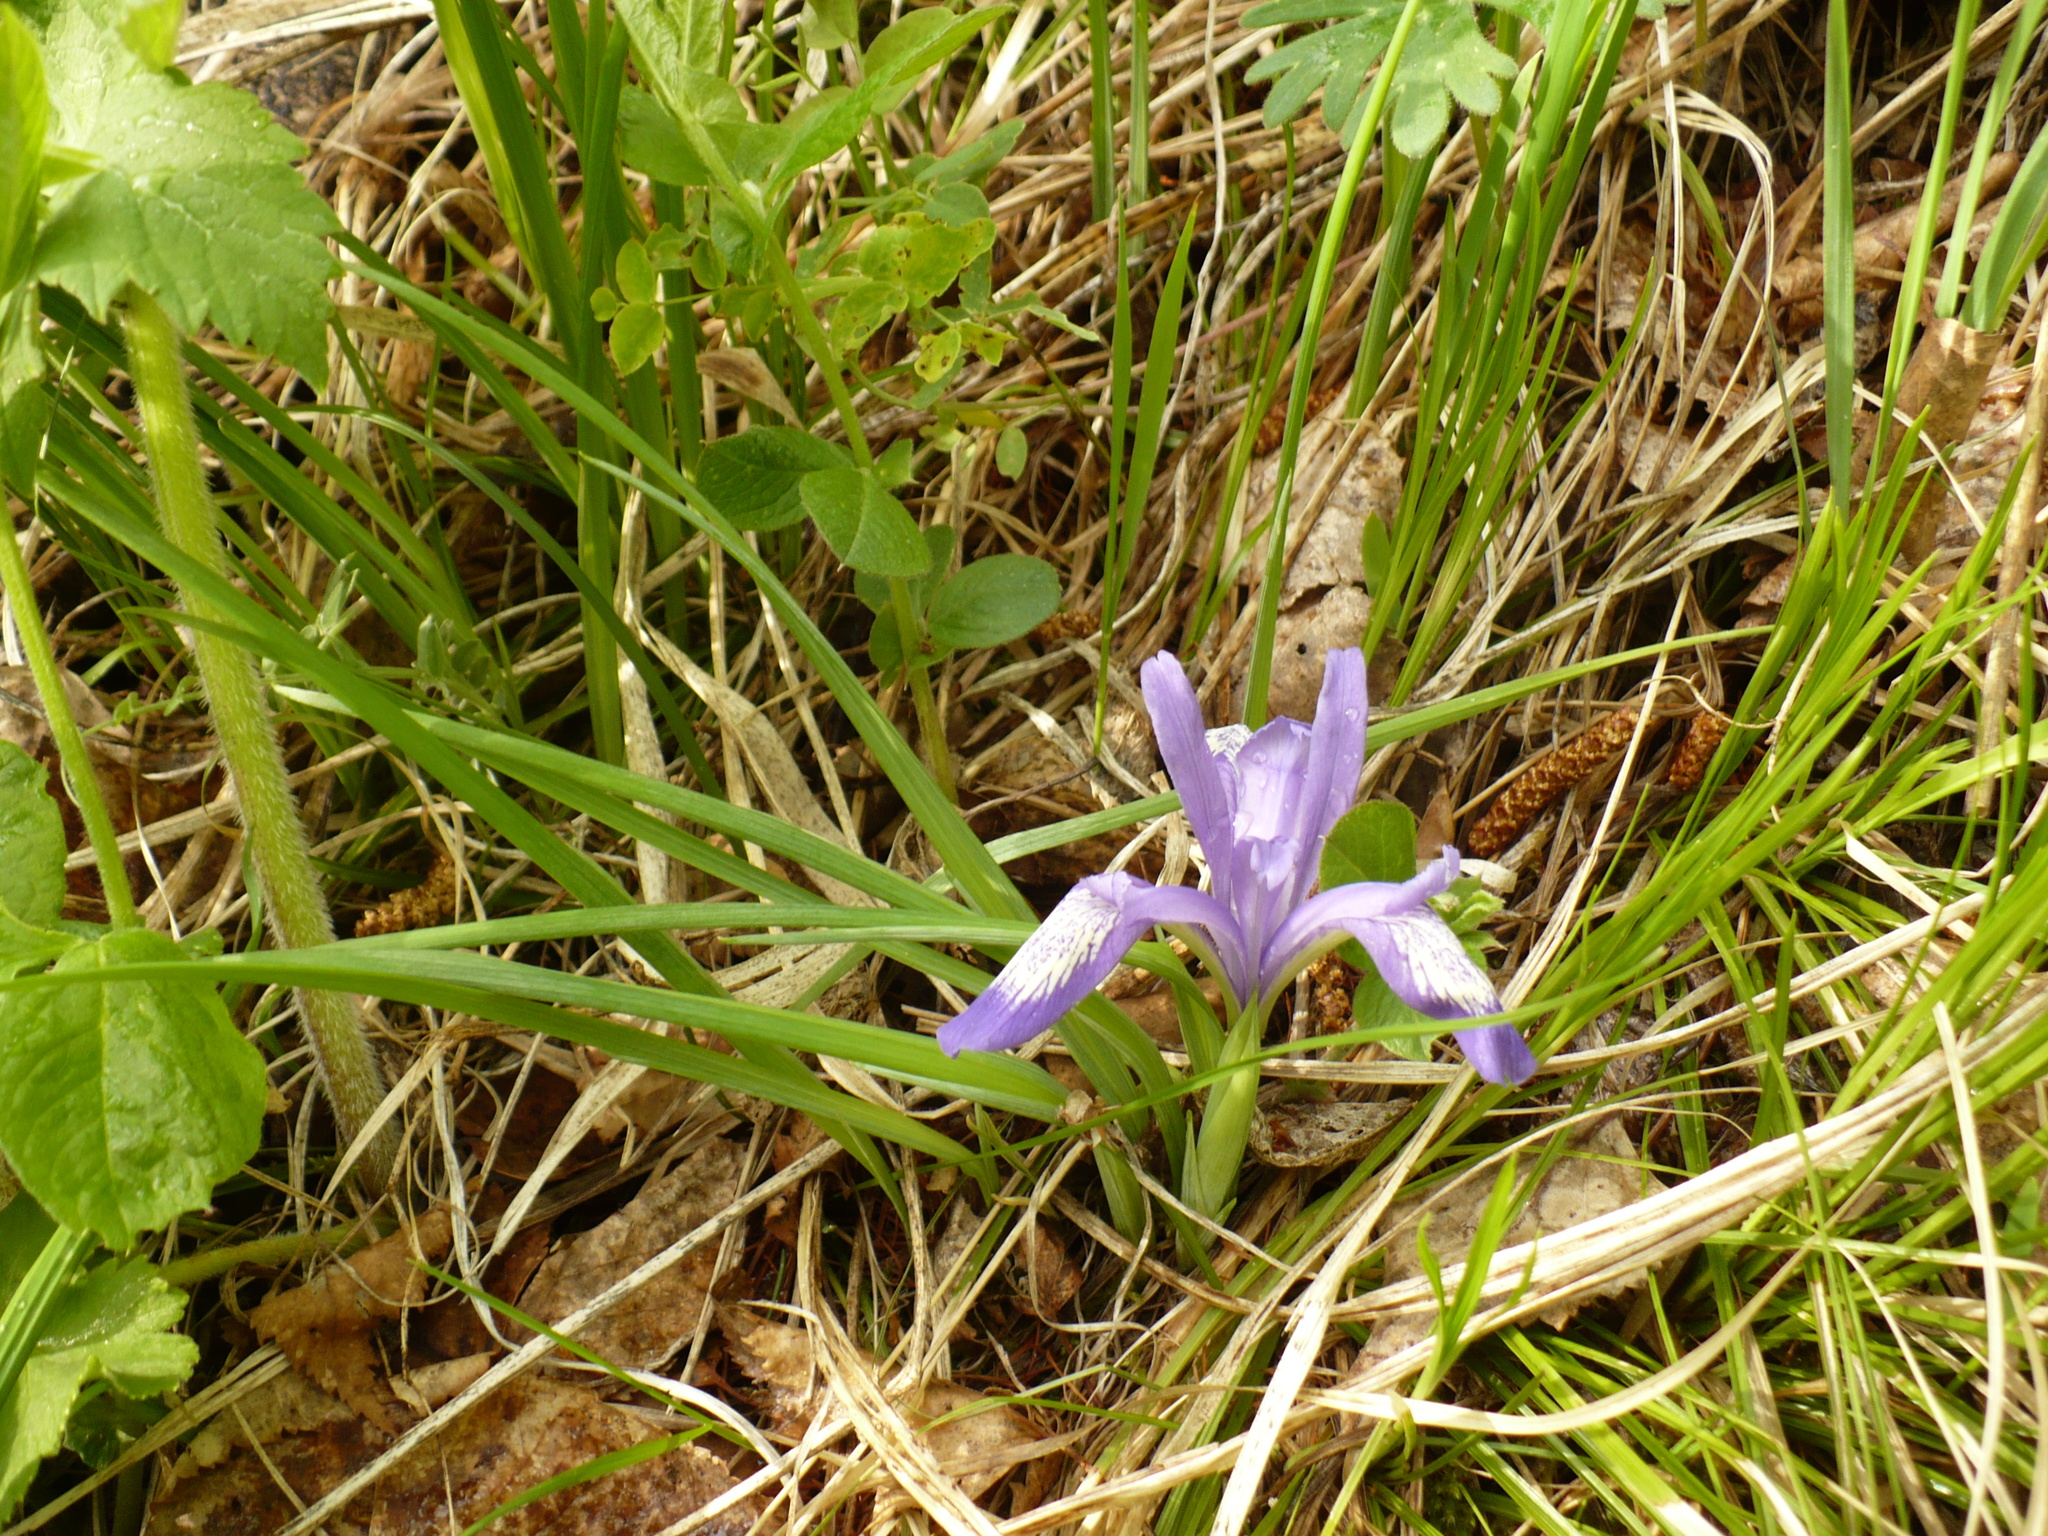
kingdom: Plantae
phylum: Tracheophyta
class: Liliopsida
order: Asparagales
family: Iridaceae
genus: Iris
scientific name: Iris ruthenica
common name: Purple-bract iris
